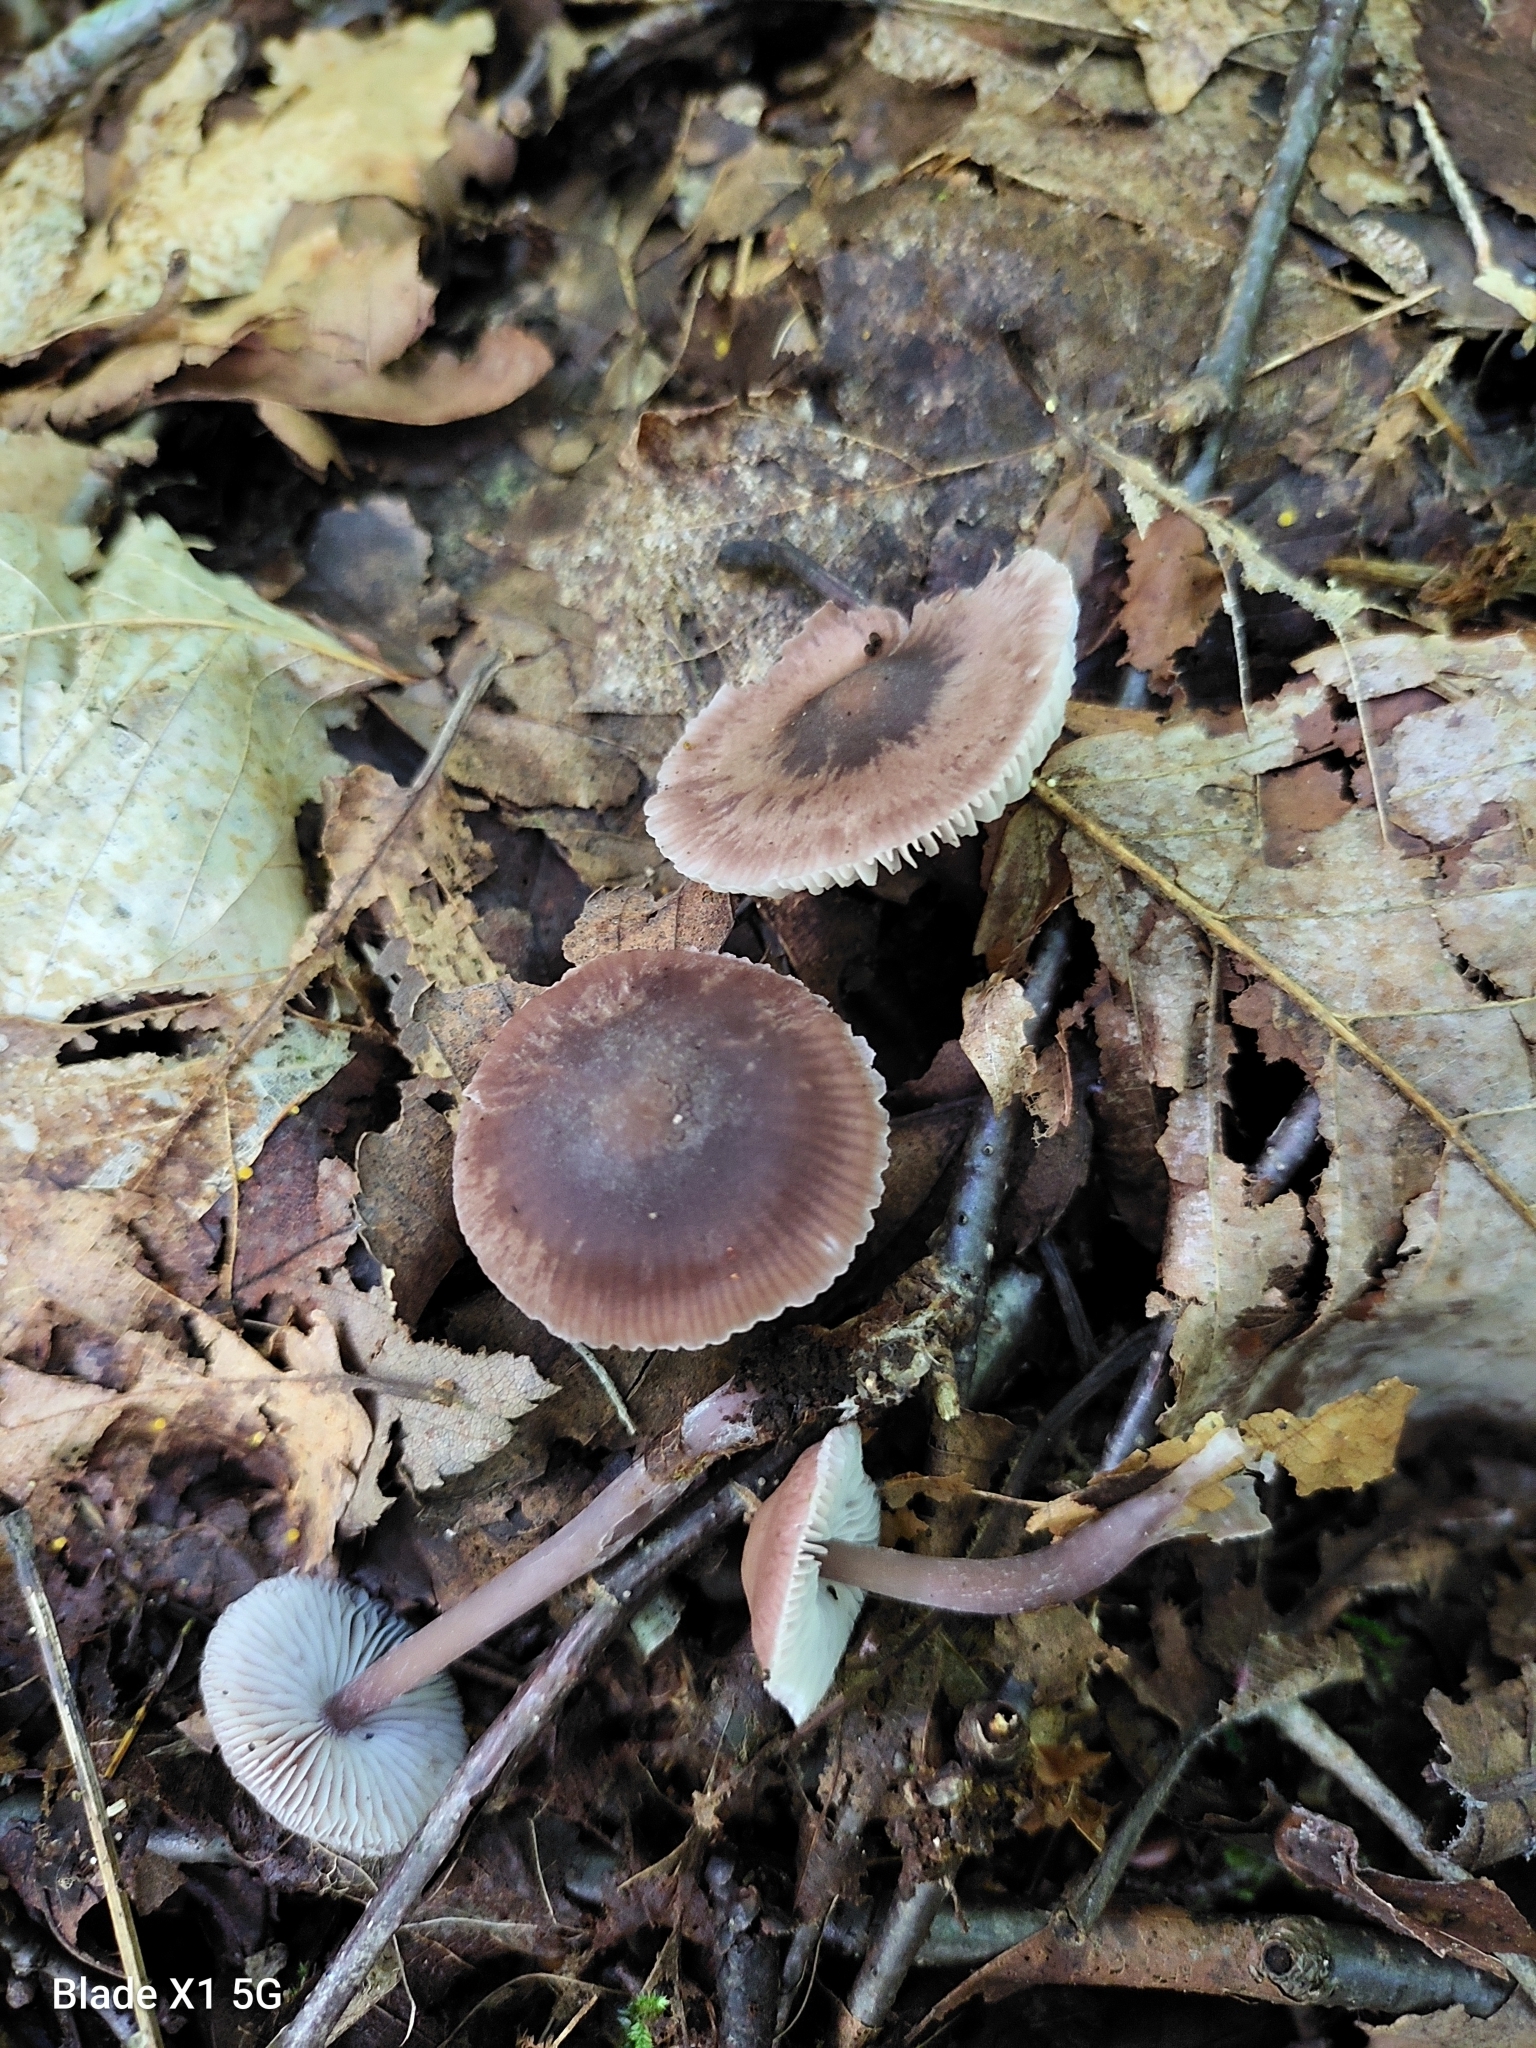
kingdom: Fungi
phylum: Basidiomycota
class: Agaricomycetes
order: Agaricales
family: Mycenaceae
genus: Mycena
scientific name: Mycena pura
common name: Lilac bonnet
